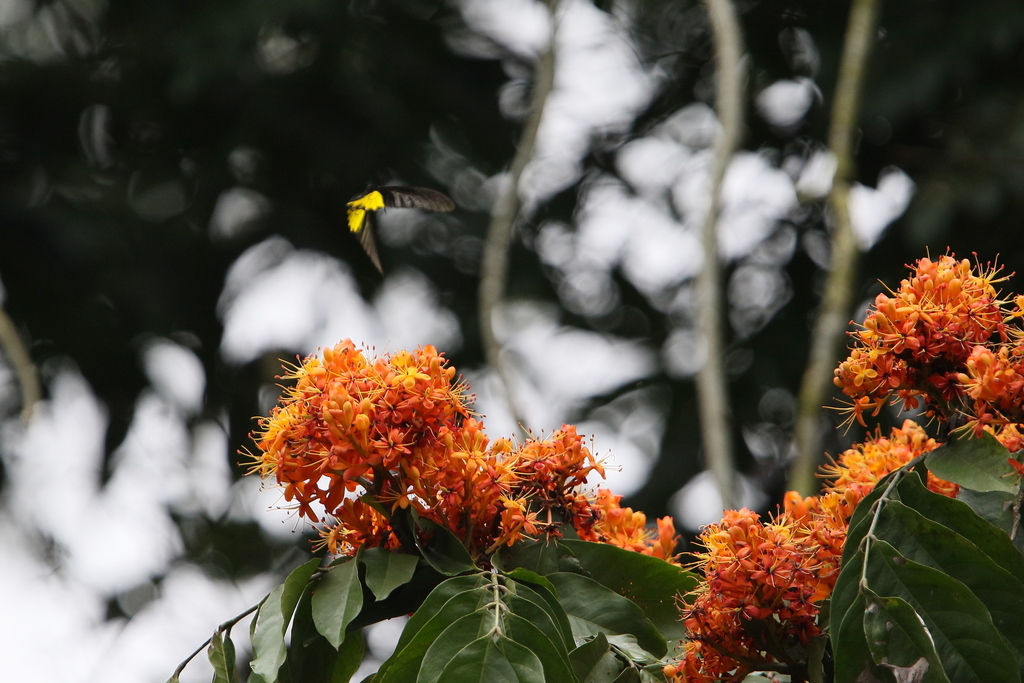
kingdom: Animalia
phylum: Arthropoda
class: Insecta
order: Lepidoptera
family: Papilionidae
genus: Troides
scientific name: Troides aeacus
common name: Golden birdwing
